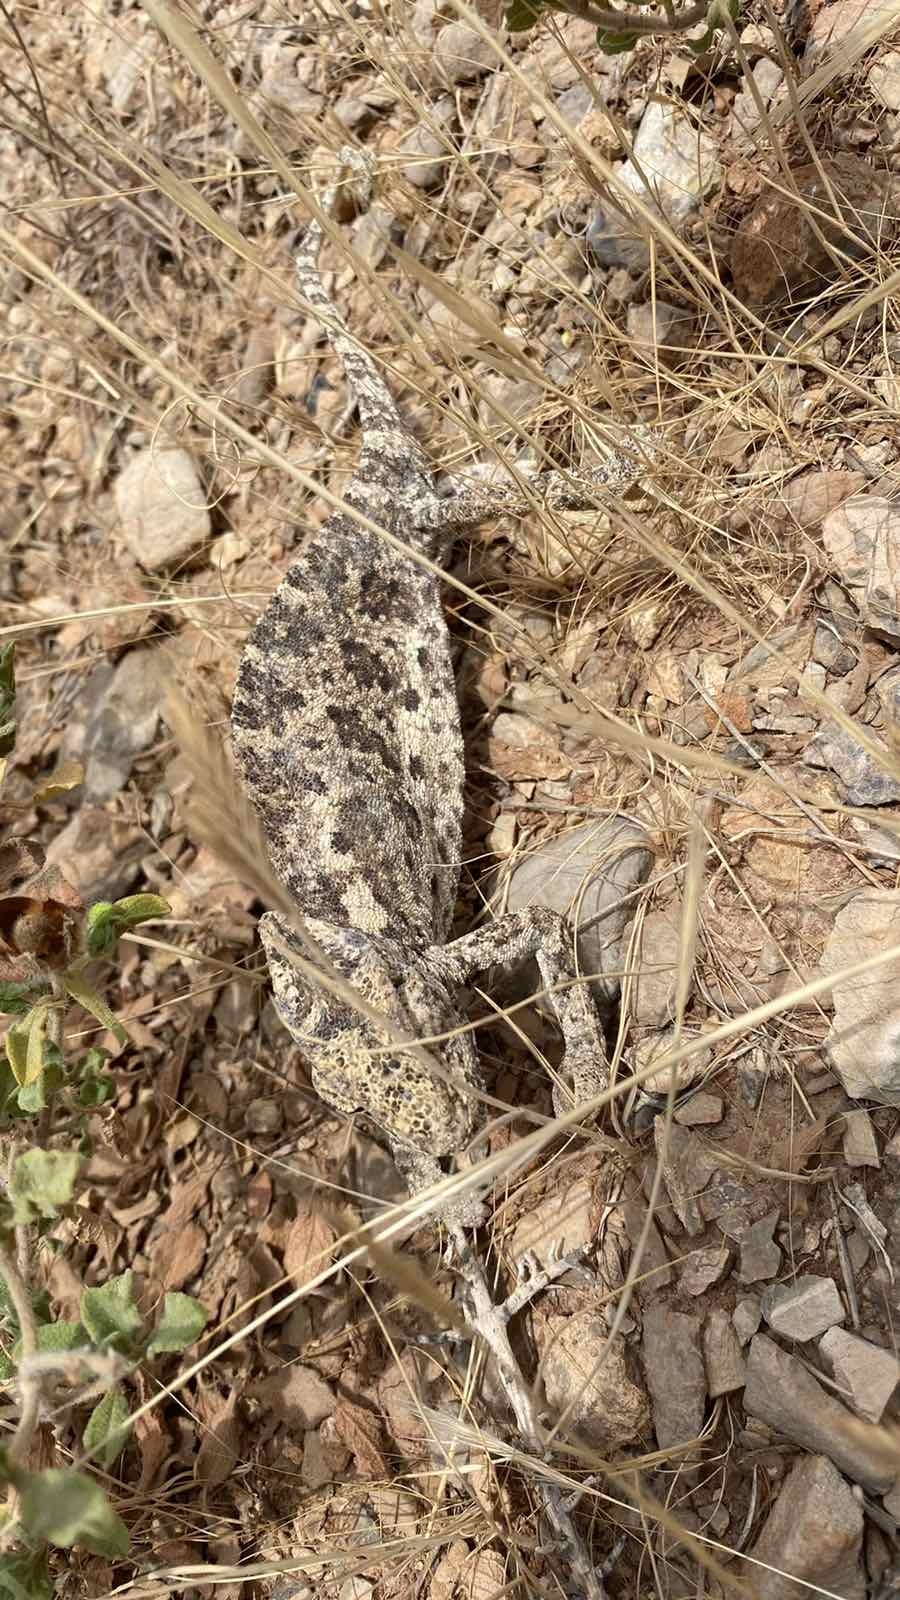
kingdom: Animalia
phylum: Chordata
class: Squamata
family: Chamaeleonidae
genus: Chamaeleo
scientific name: Chamaeleo chamaeleon
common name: Mediterranean chameleon
